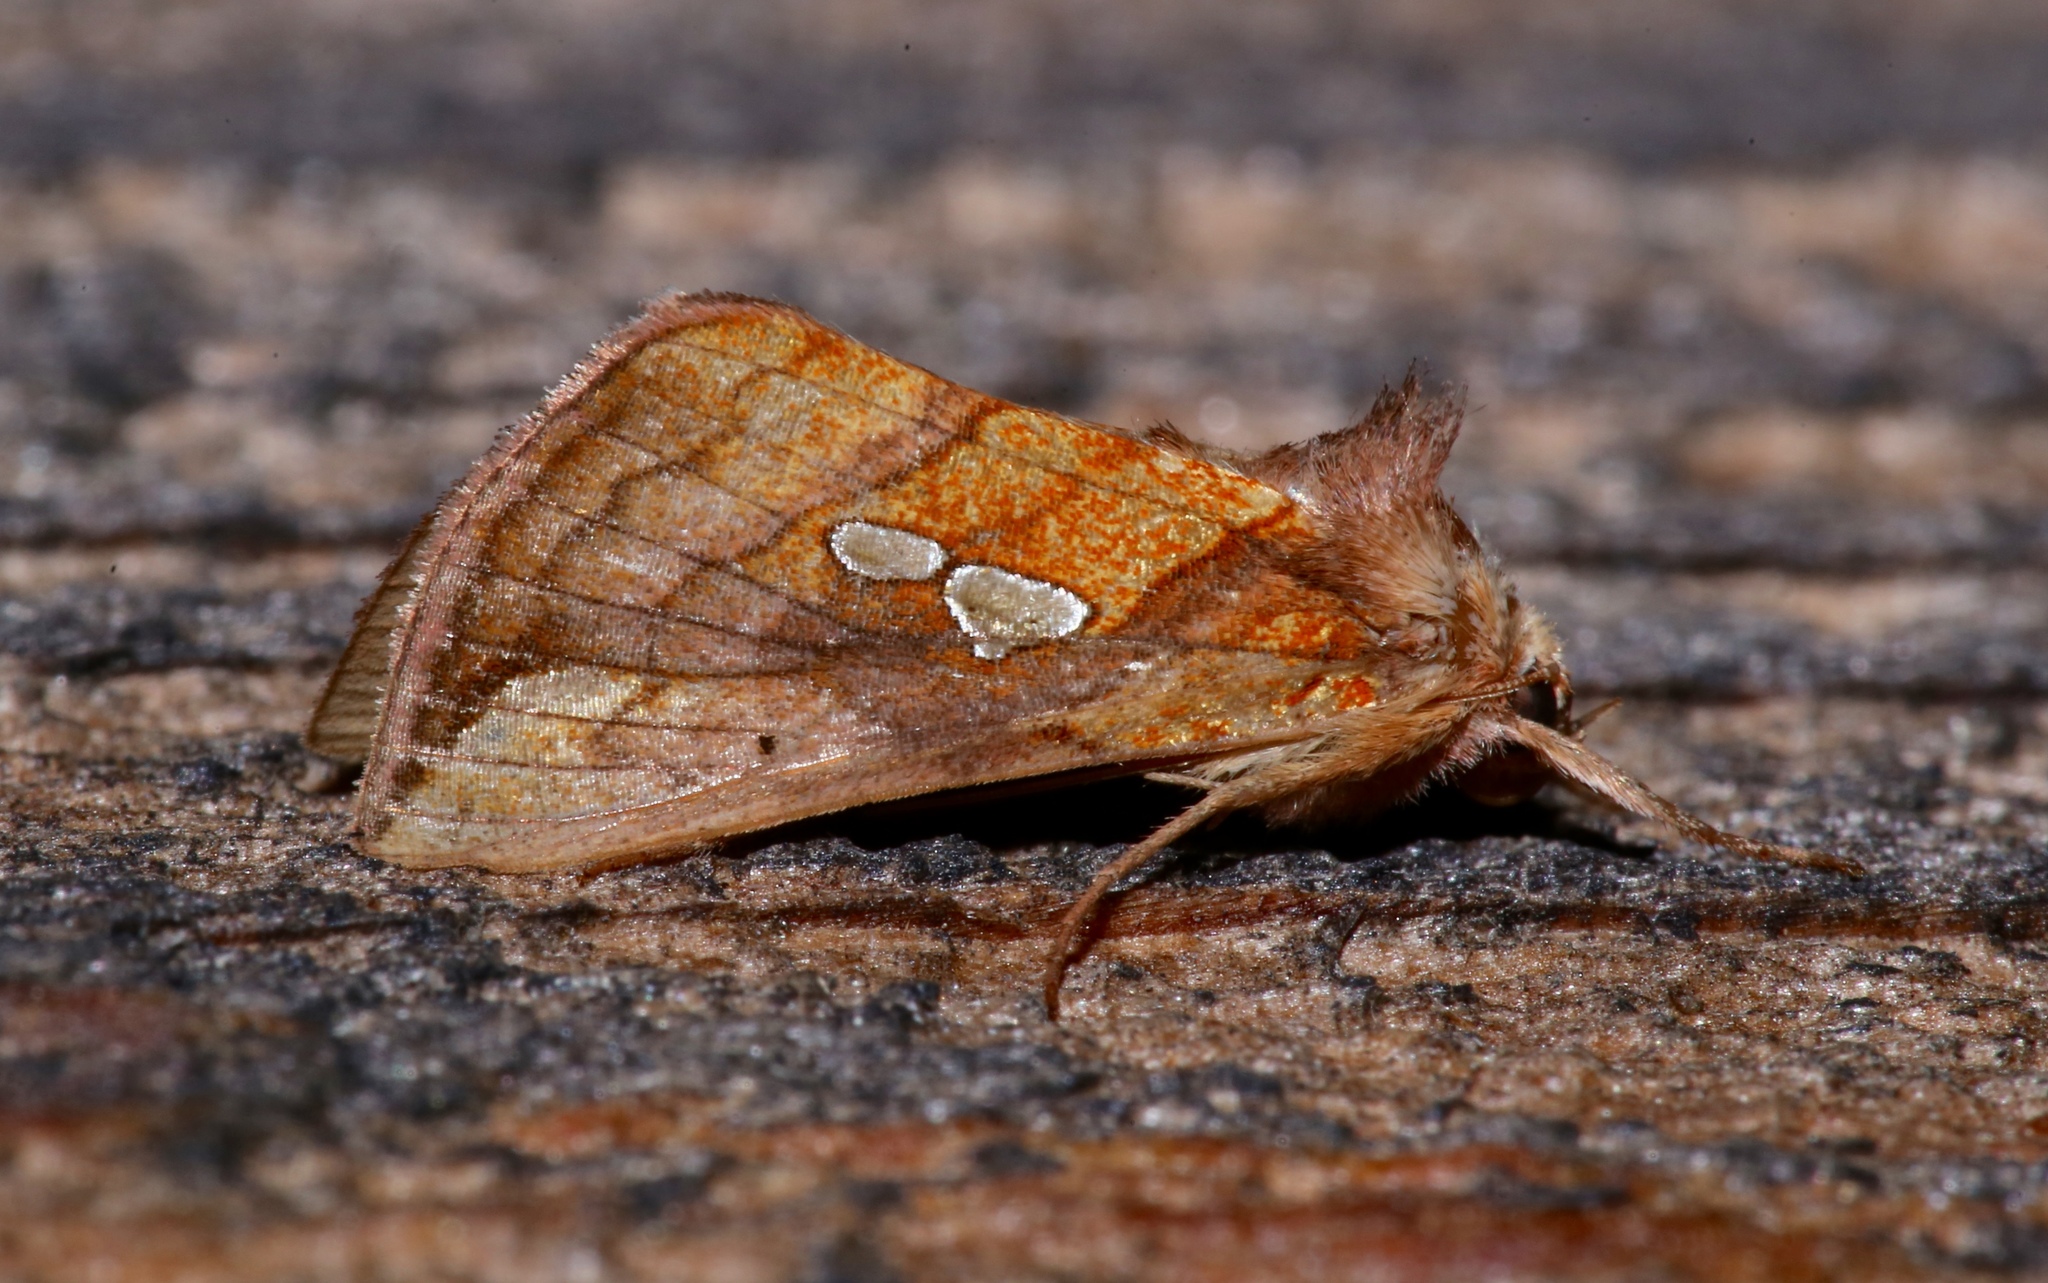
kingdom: Animalia
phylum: Arthropoda
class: Insecta
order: Lepidoptera
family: Noctuidae
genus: Plusia
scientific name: Plusia putnami
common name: Lempke's gold spot
